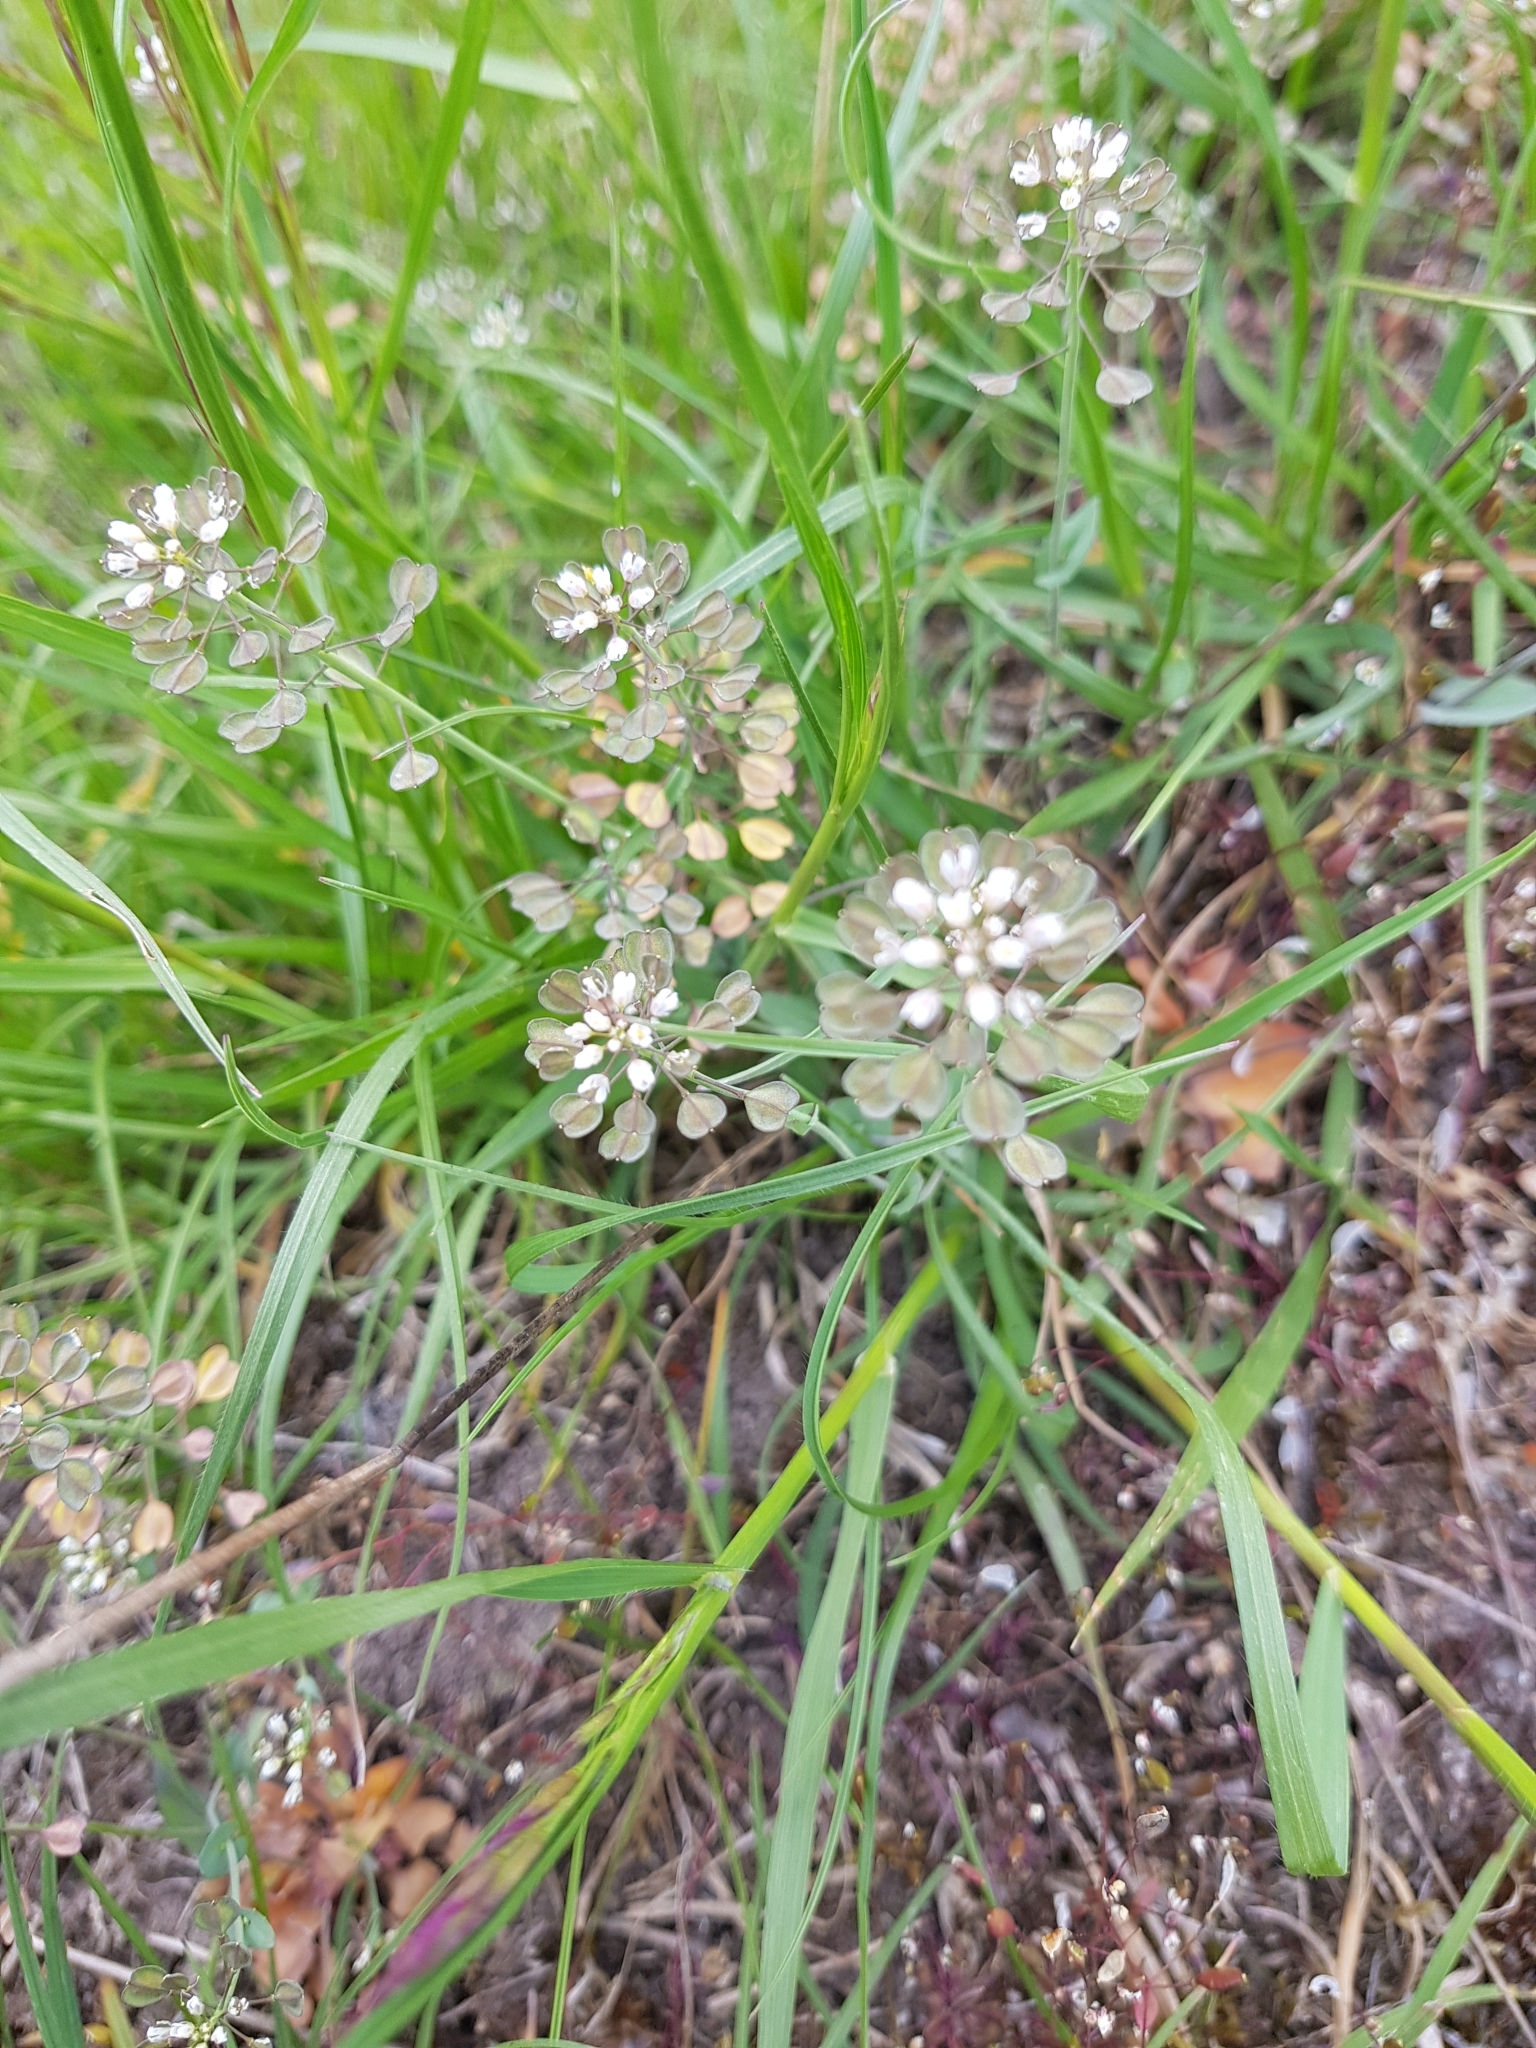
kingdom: Plantae
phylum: Tracheophyta
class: Magnoliopsida
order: Brassicales
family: Brassicaceae
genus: Noccaea
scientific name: Noccaea perfoliata
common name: Perfoliate pennycress
